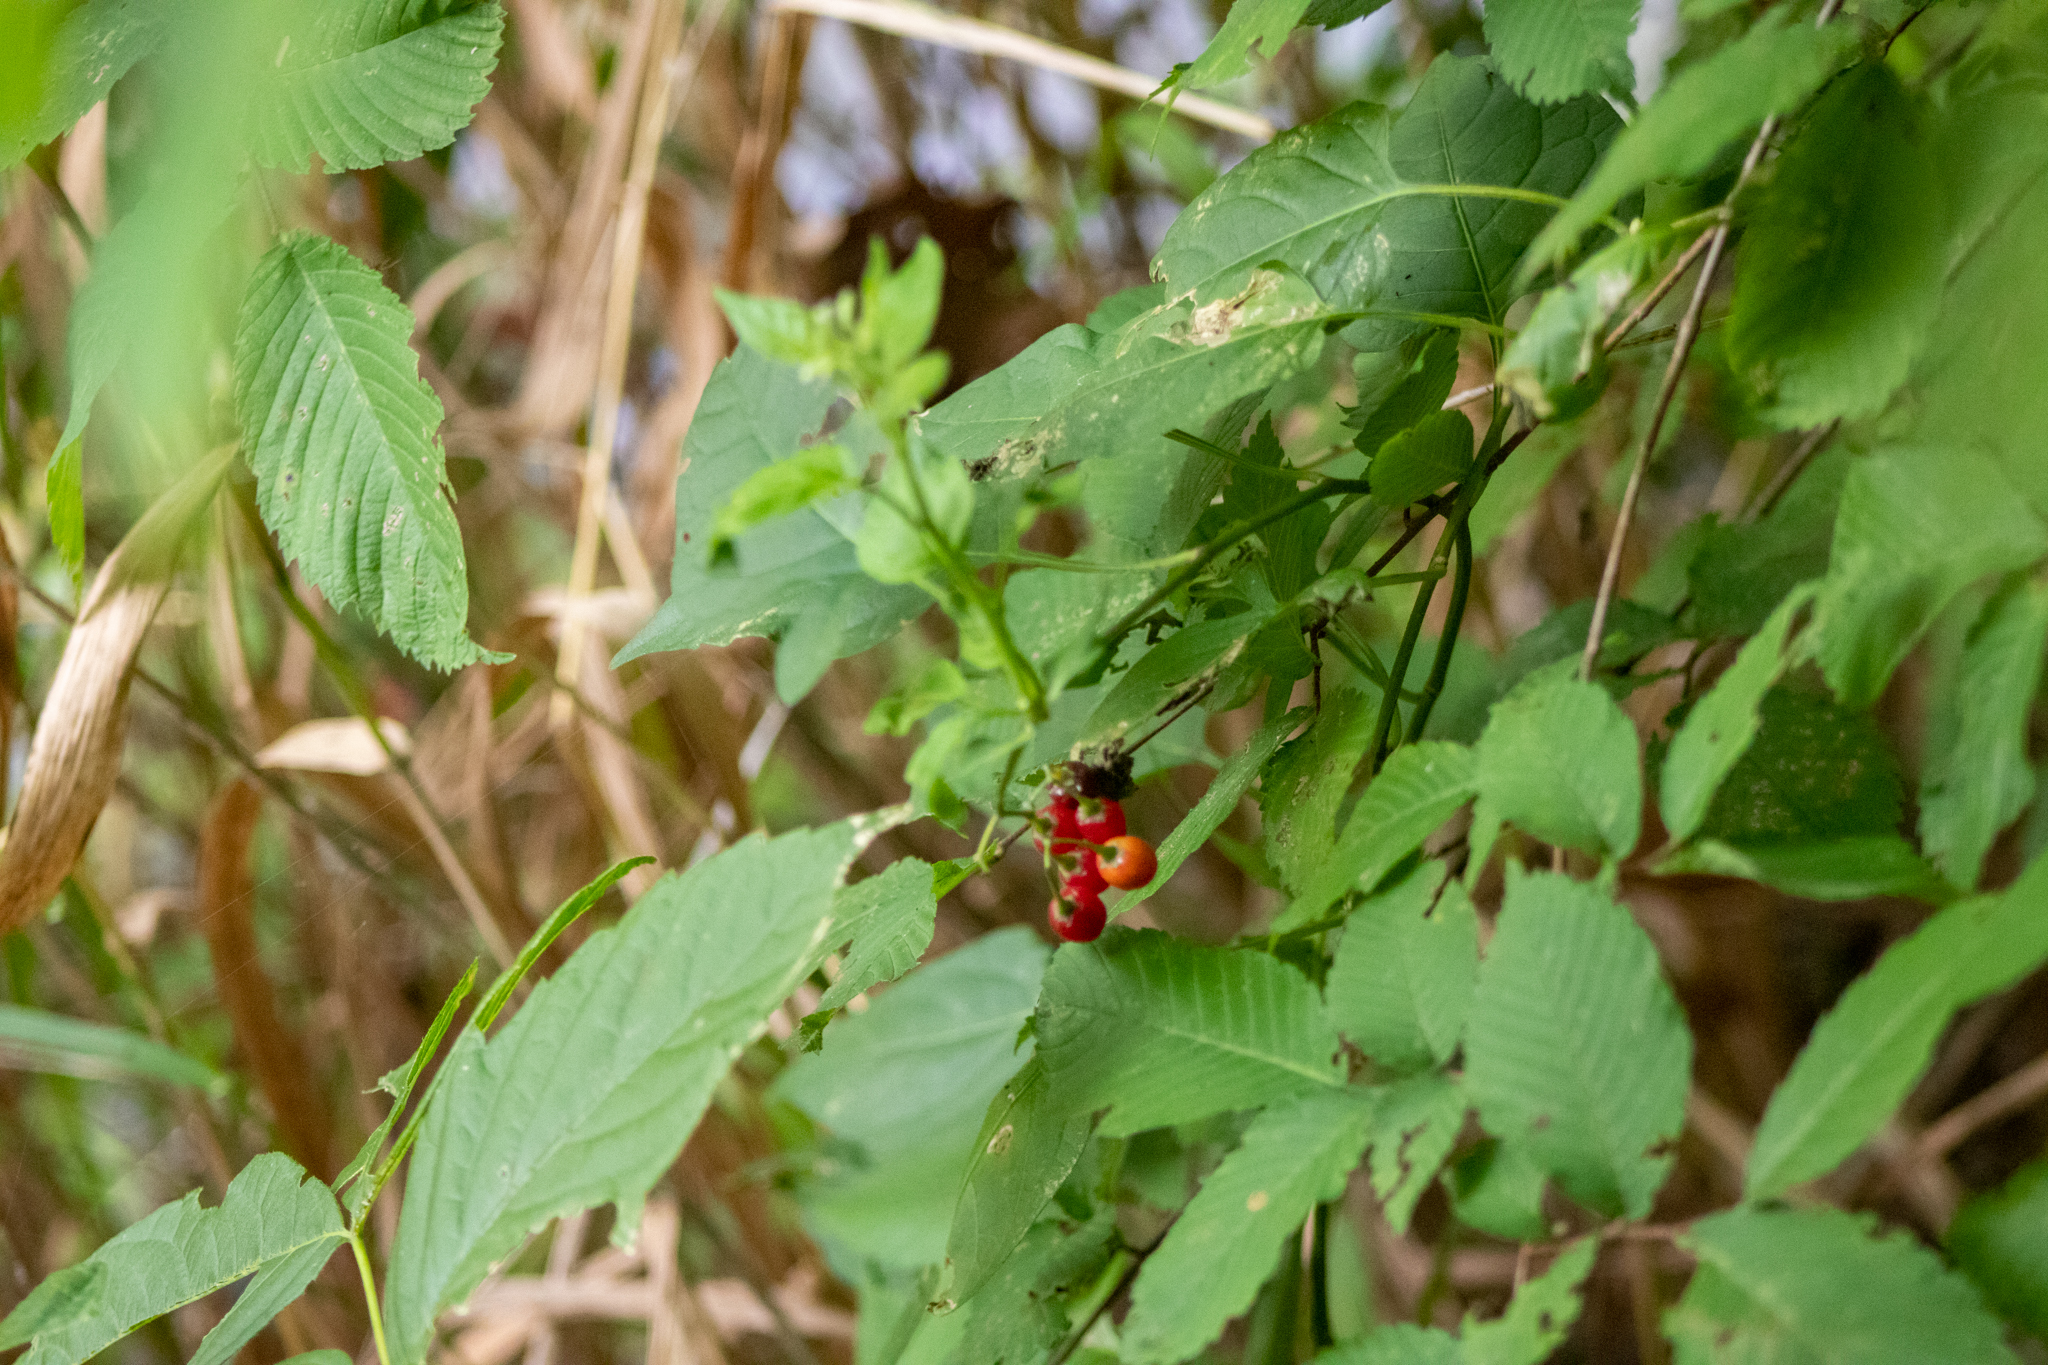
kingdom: Plantae
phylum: Tracheophyta
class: Magnoliopsida
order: Solanales
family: Solanaceae
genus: Solanum
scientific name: Solanum dulcamara
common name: Climbing nightshade
